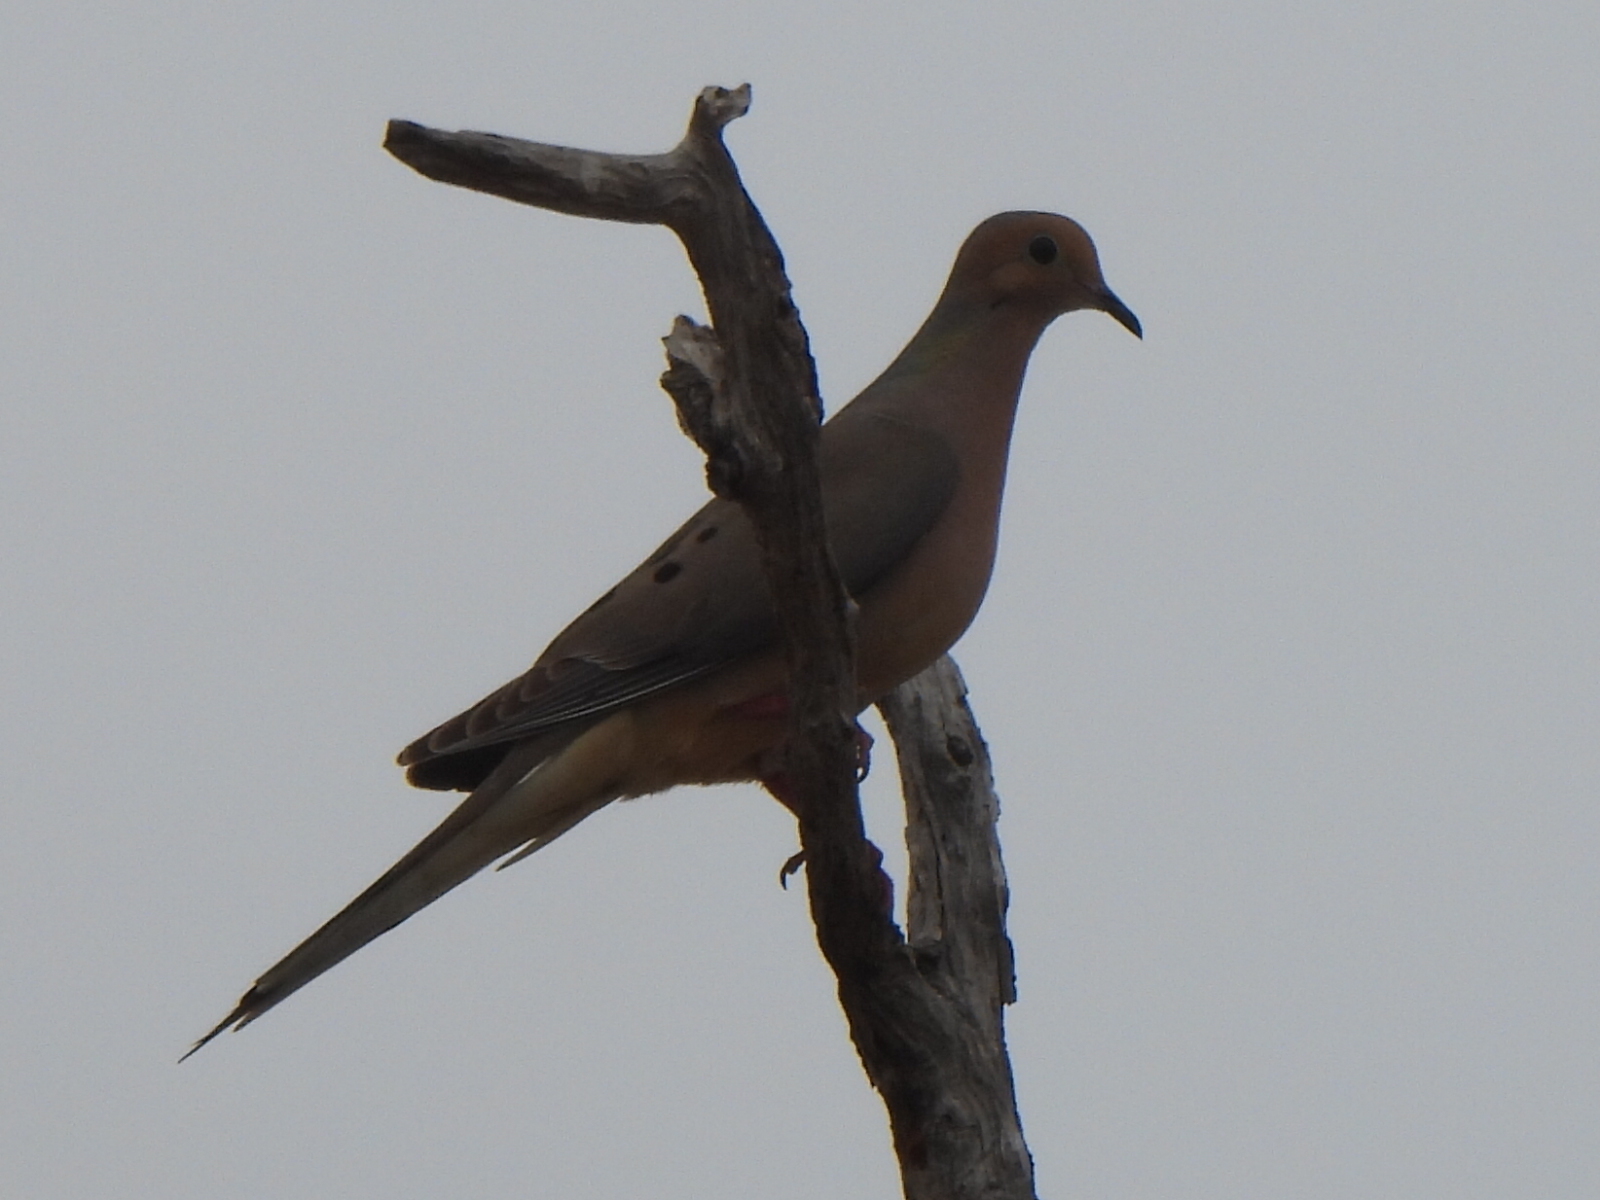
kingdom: Animalia
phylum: Chordata
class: Aves
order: Columbiformes
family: Columbidae
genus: Zenaida
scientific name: Zenaida macroura
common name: Mourning dove
